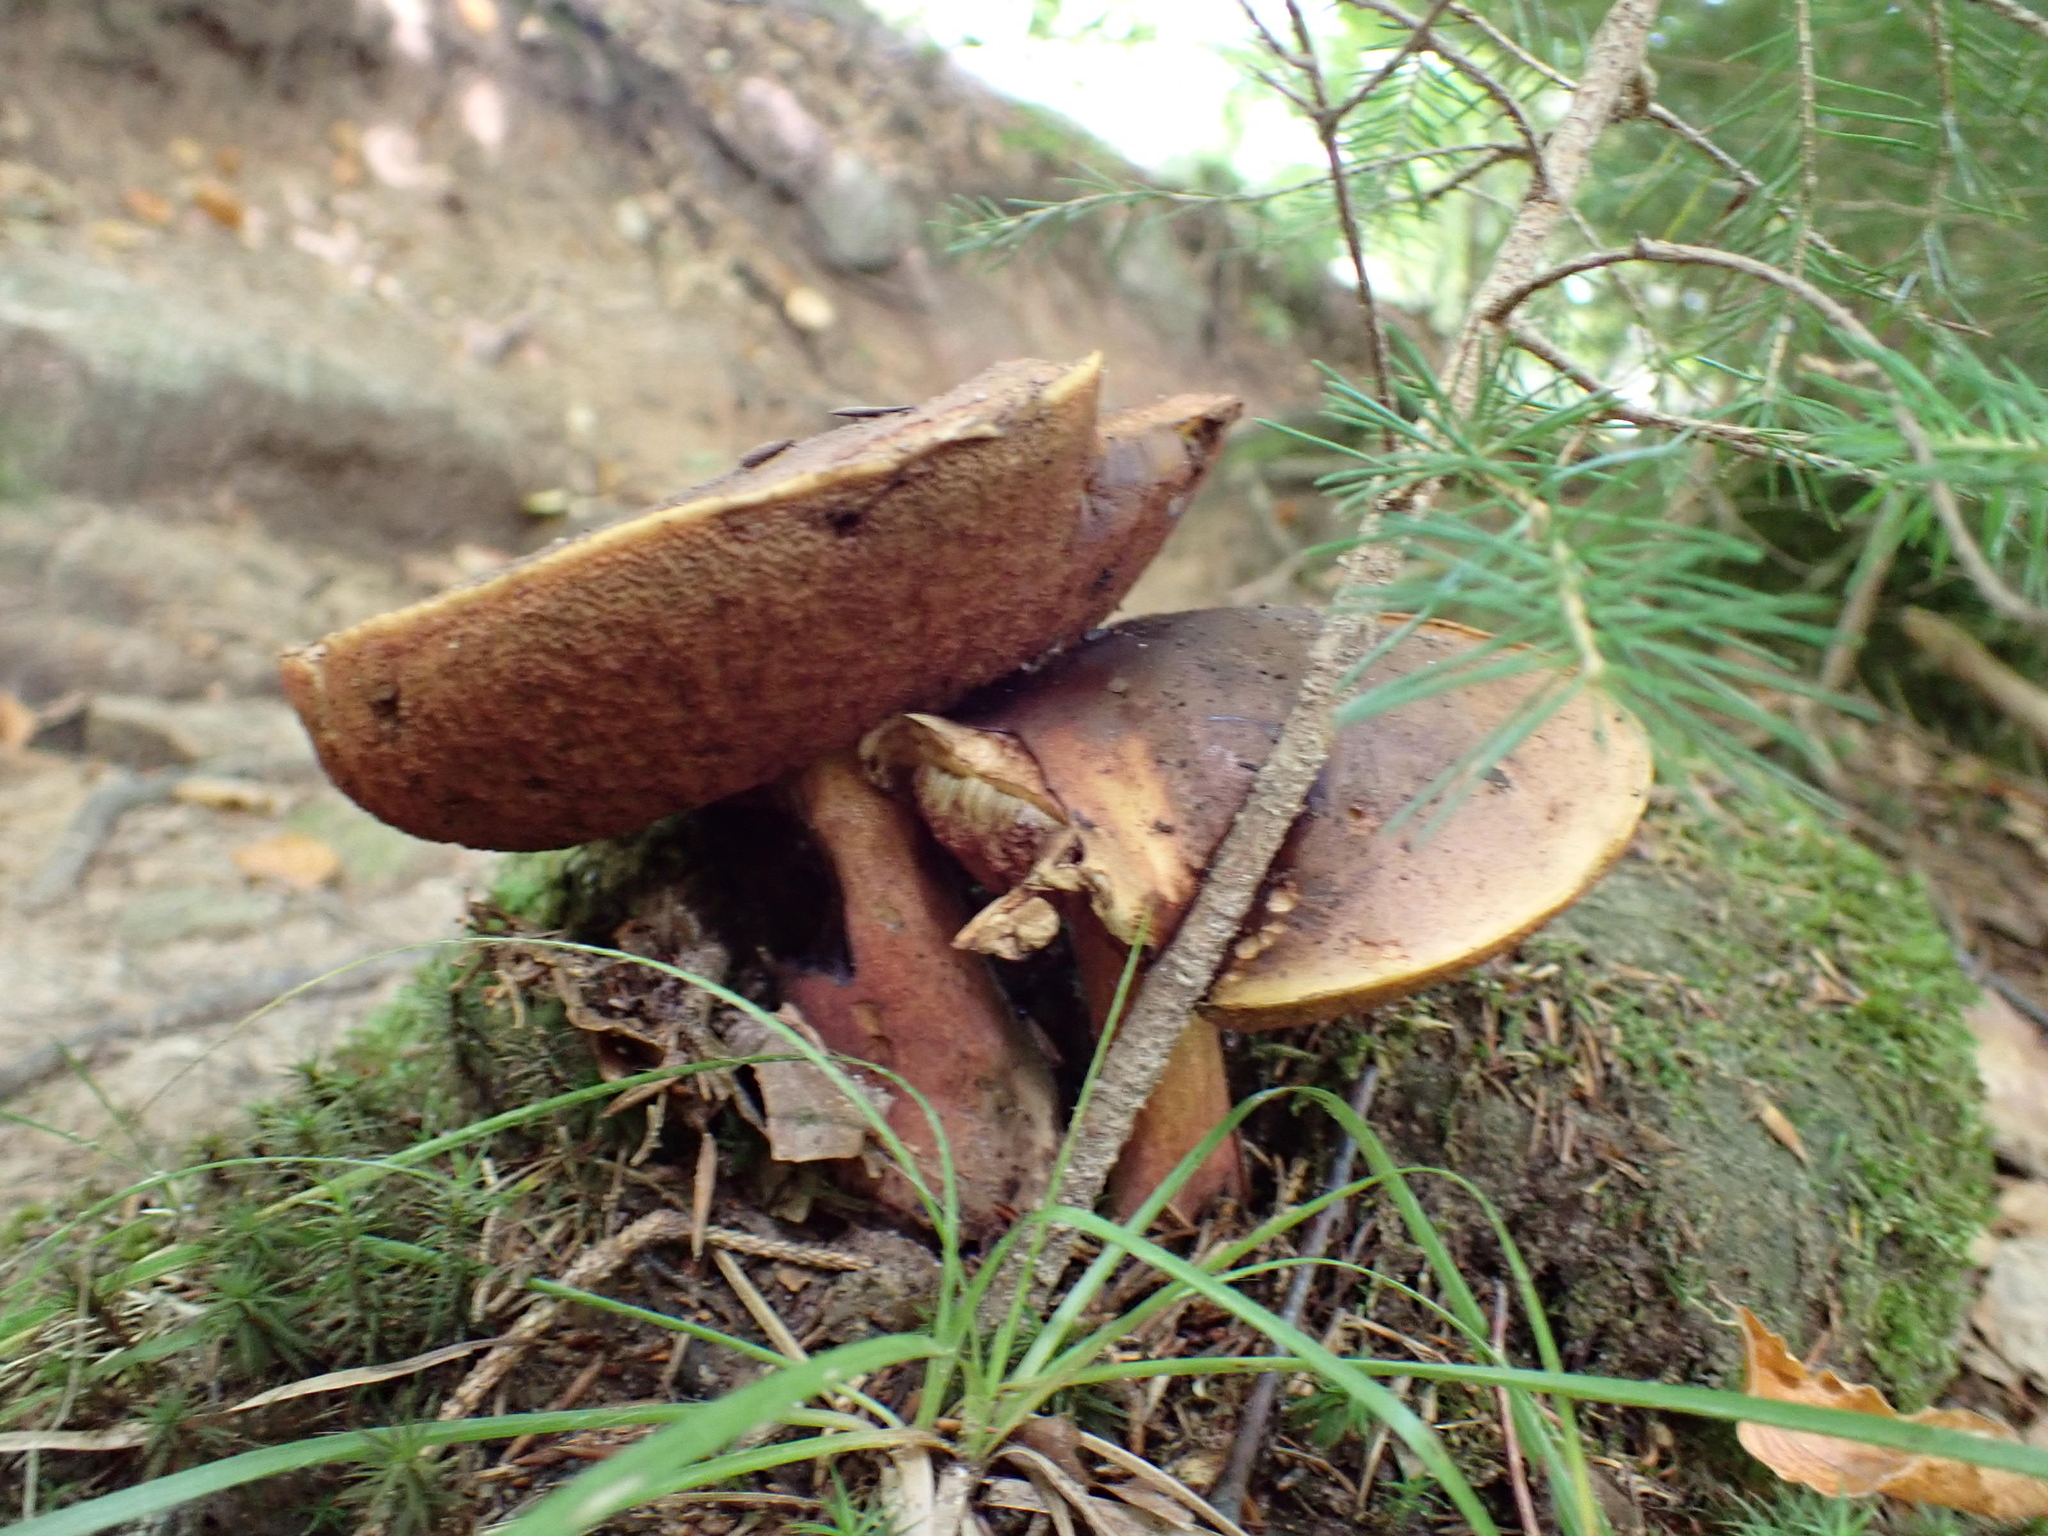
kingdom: Fungi
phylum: Basidiomycota
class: Agaricomycetes
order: Boletales
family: Boletaceae
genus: Neoboletus
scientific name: Neoboletus erythropus
